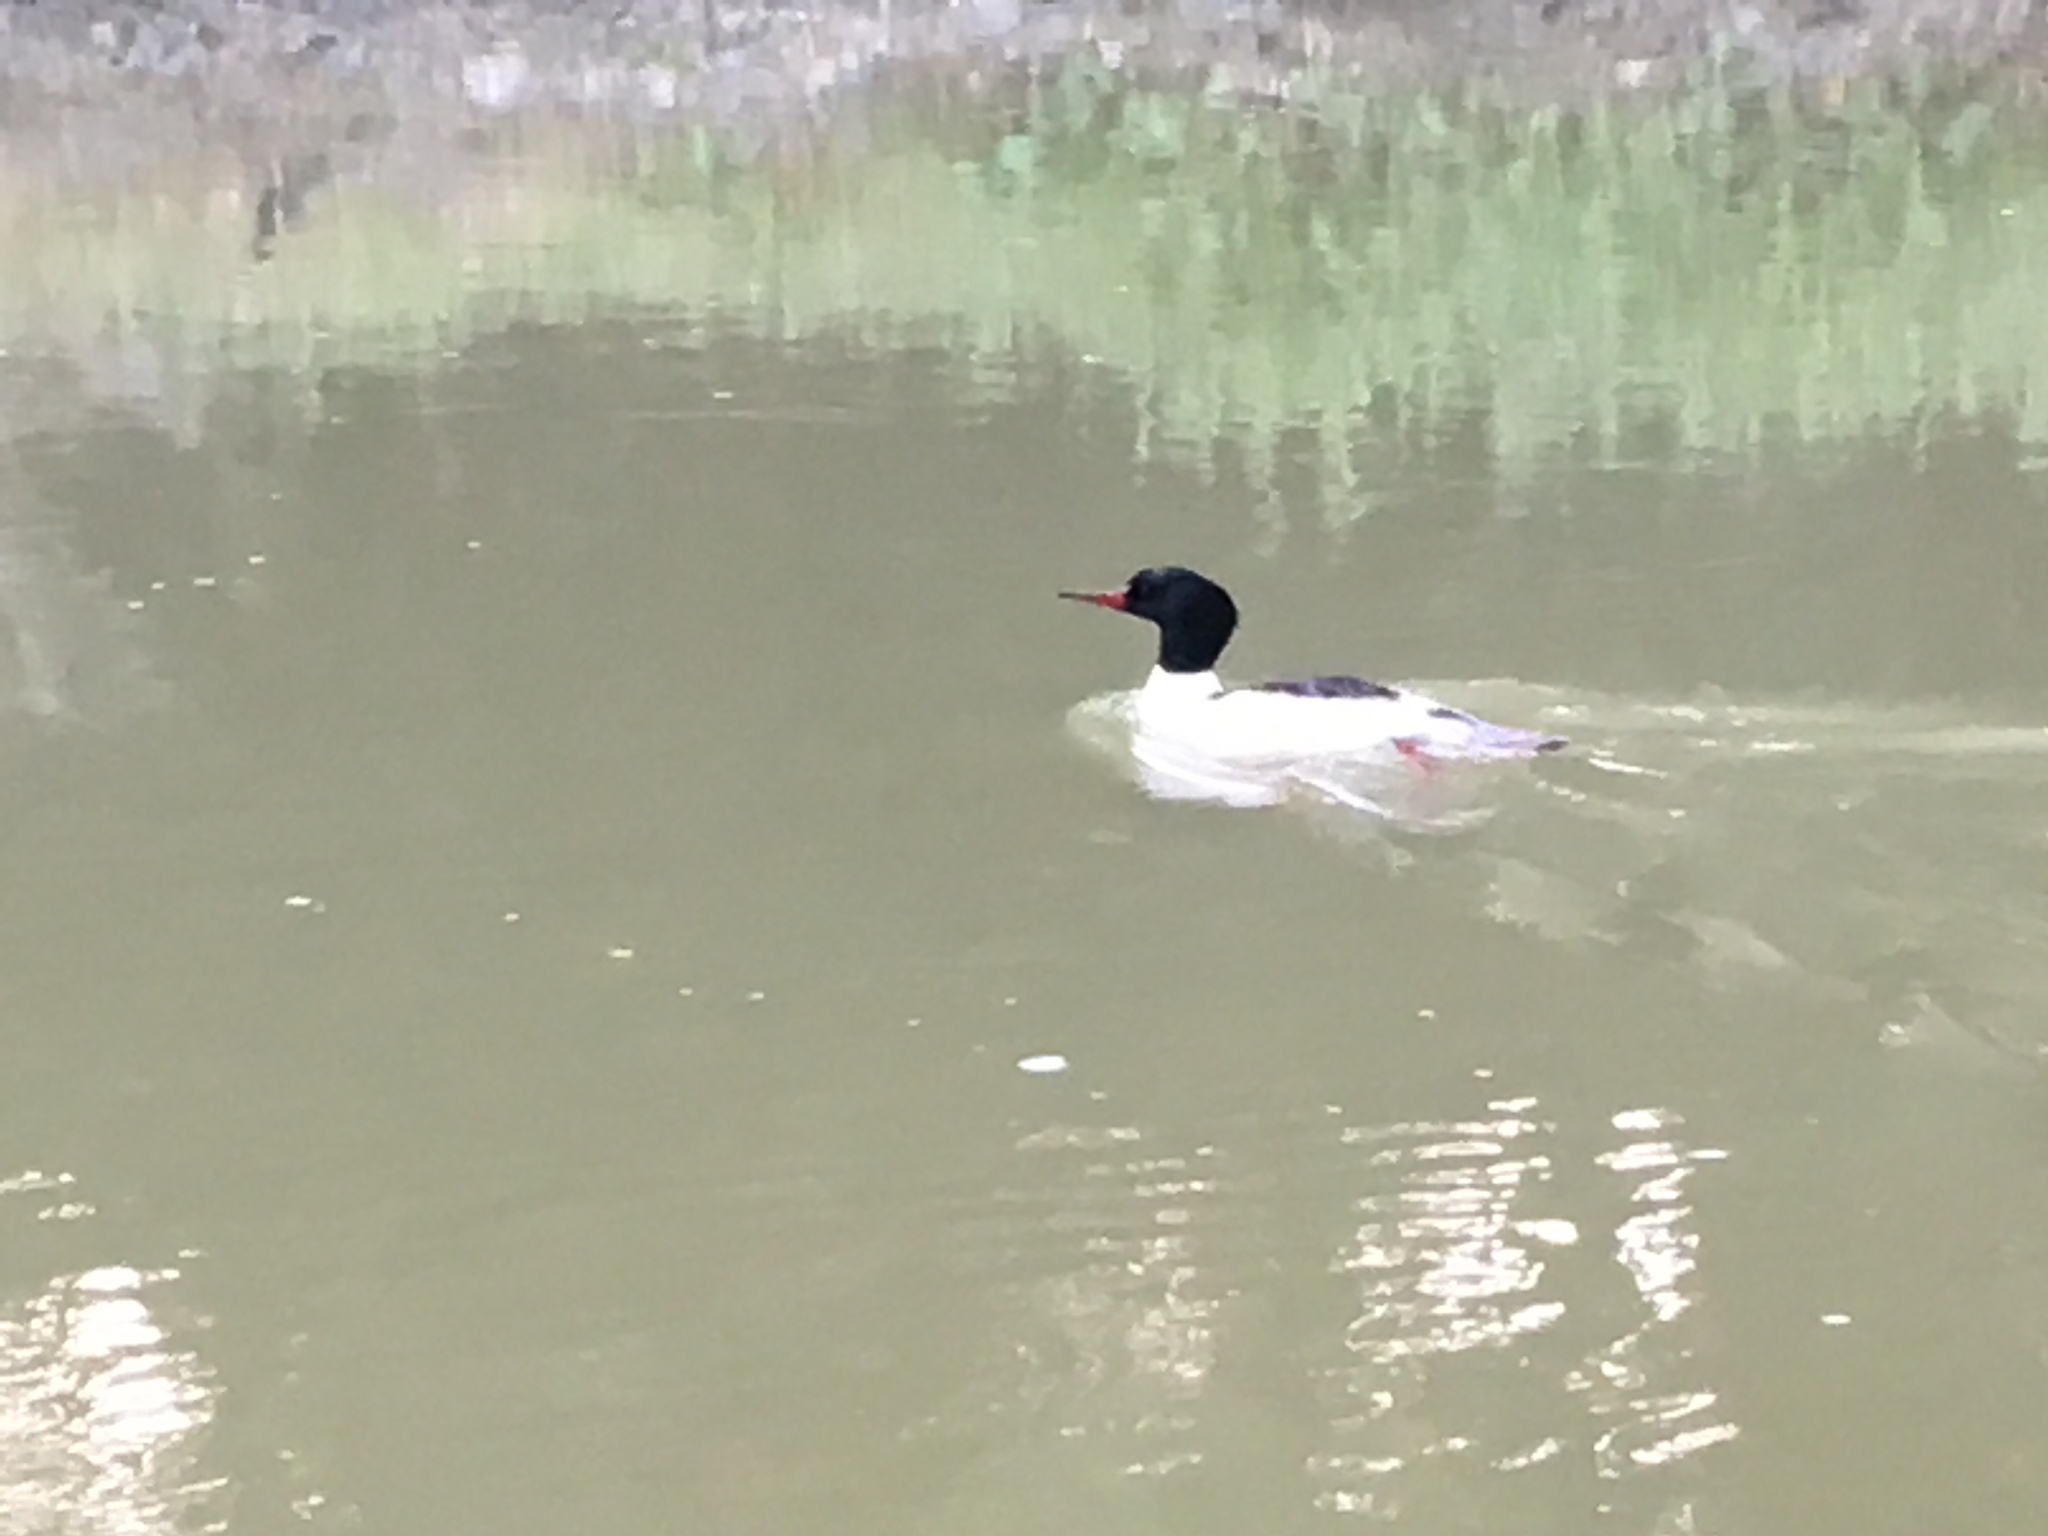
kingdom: Animalia
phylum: Chordata
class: Aves
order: Anseriformes
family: Anatidae
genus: Mergus
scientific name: Mergus merganser
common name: Common merganser
